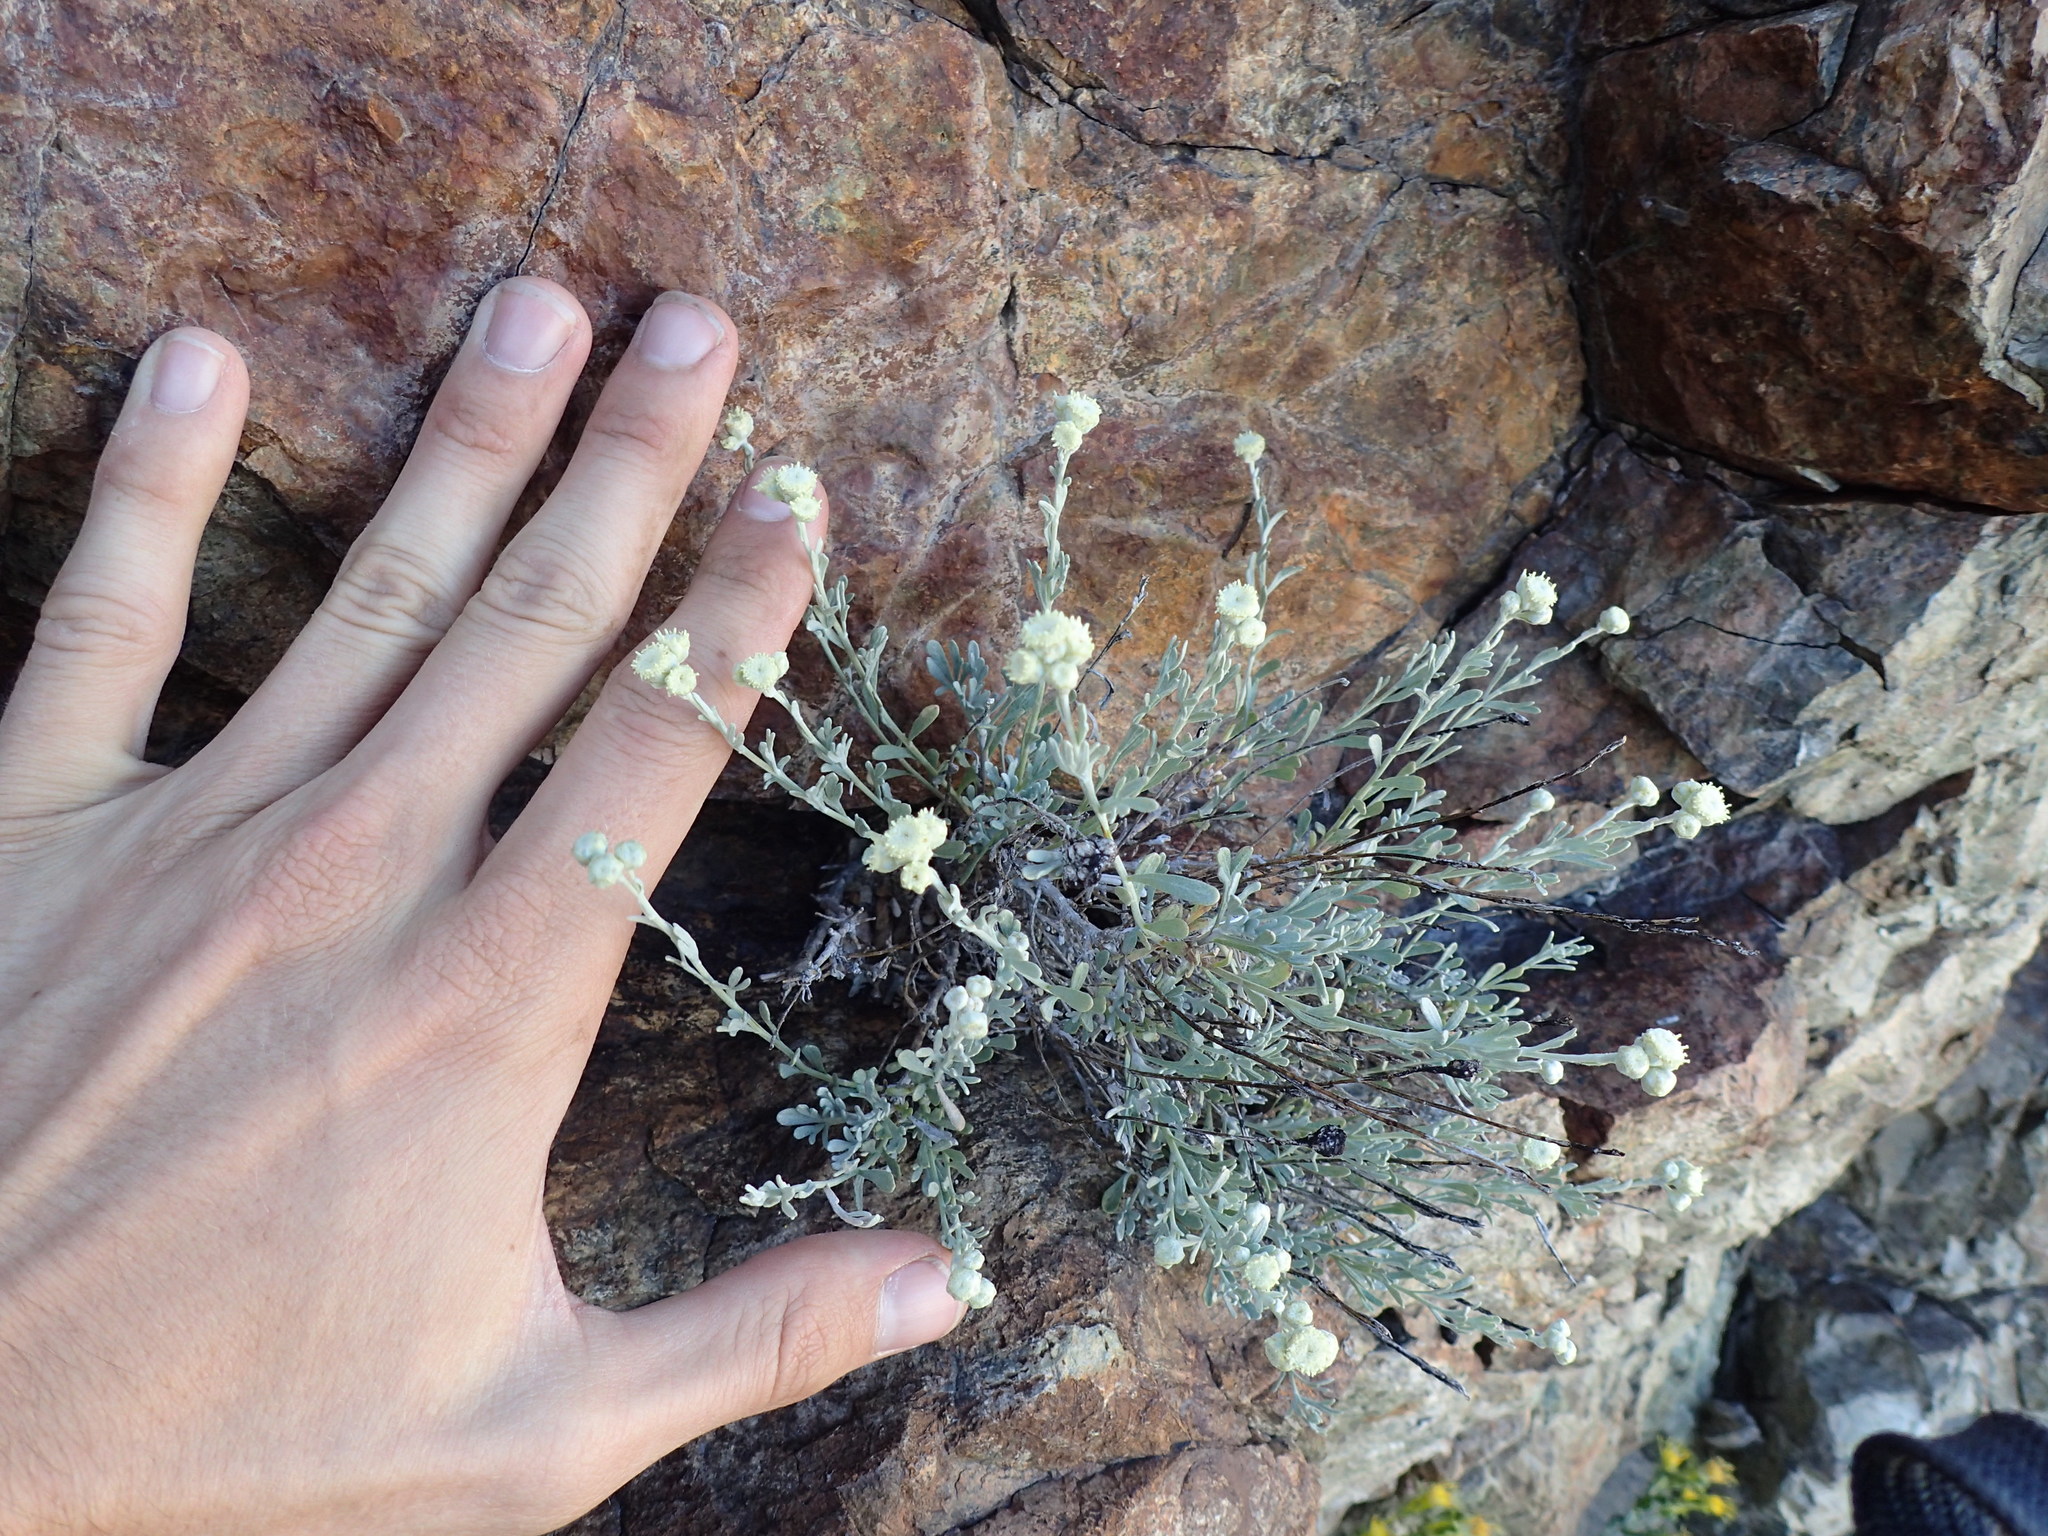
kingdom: Plantae
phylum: Tracheophyta
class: Magnoliopsida
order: Asterales
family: Asteraceae
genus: Artemisia
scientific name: Artemisia albicans
